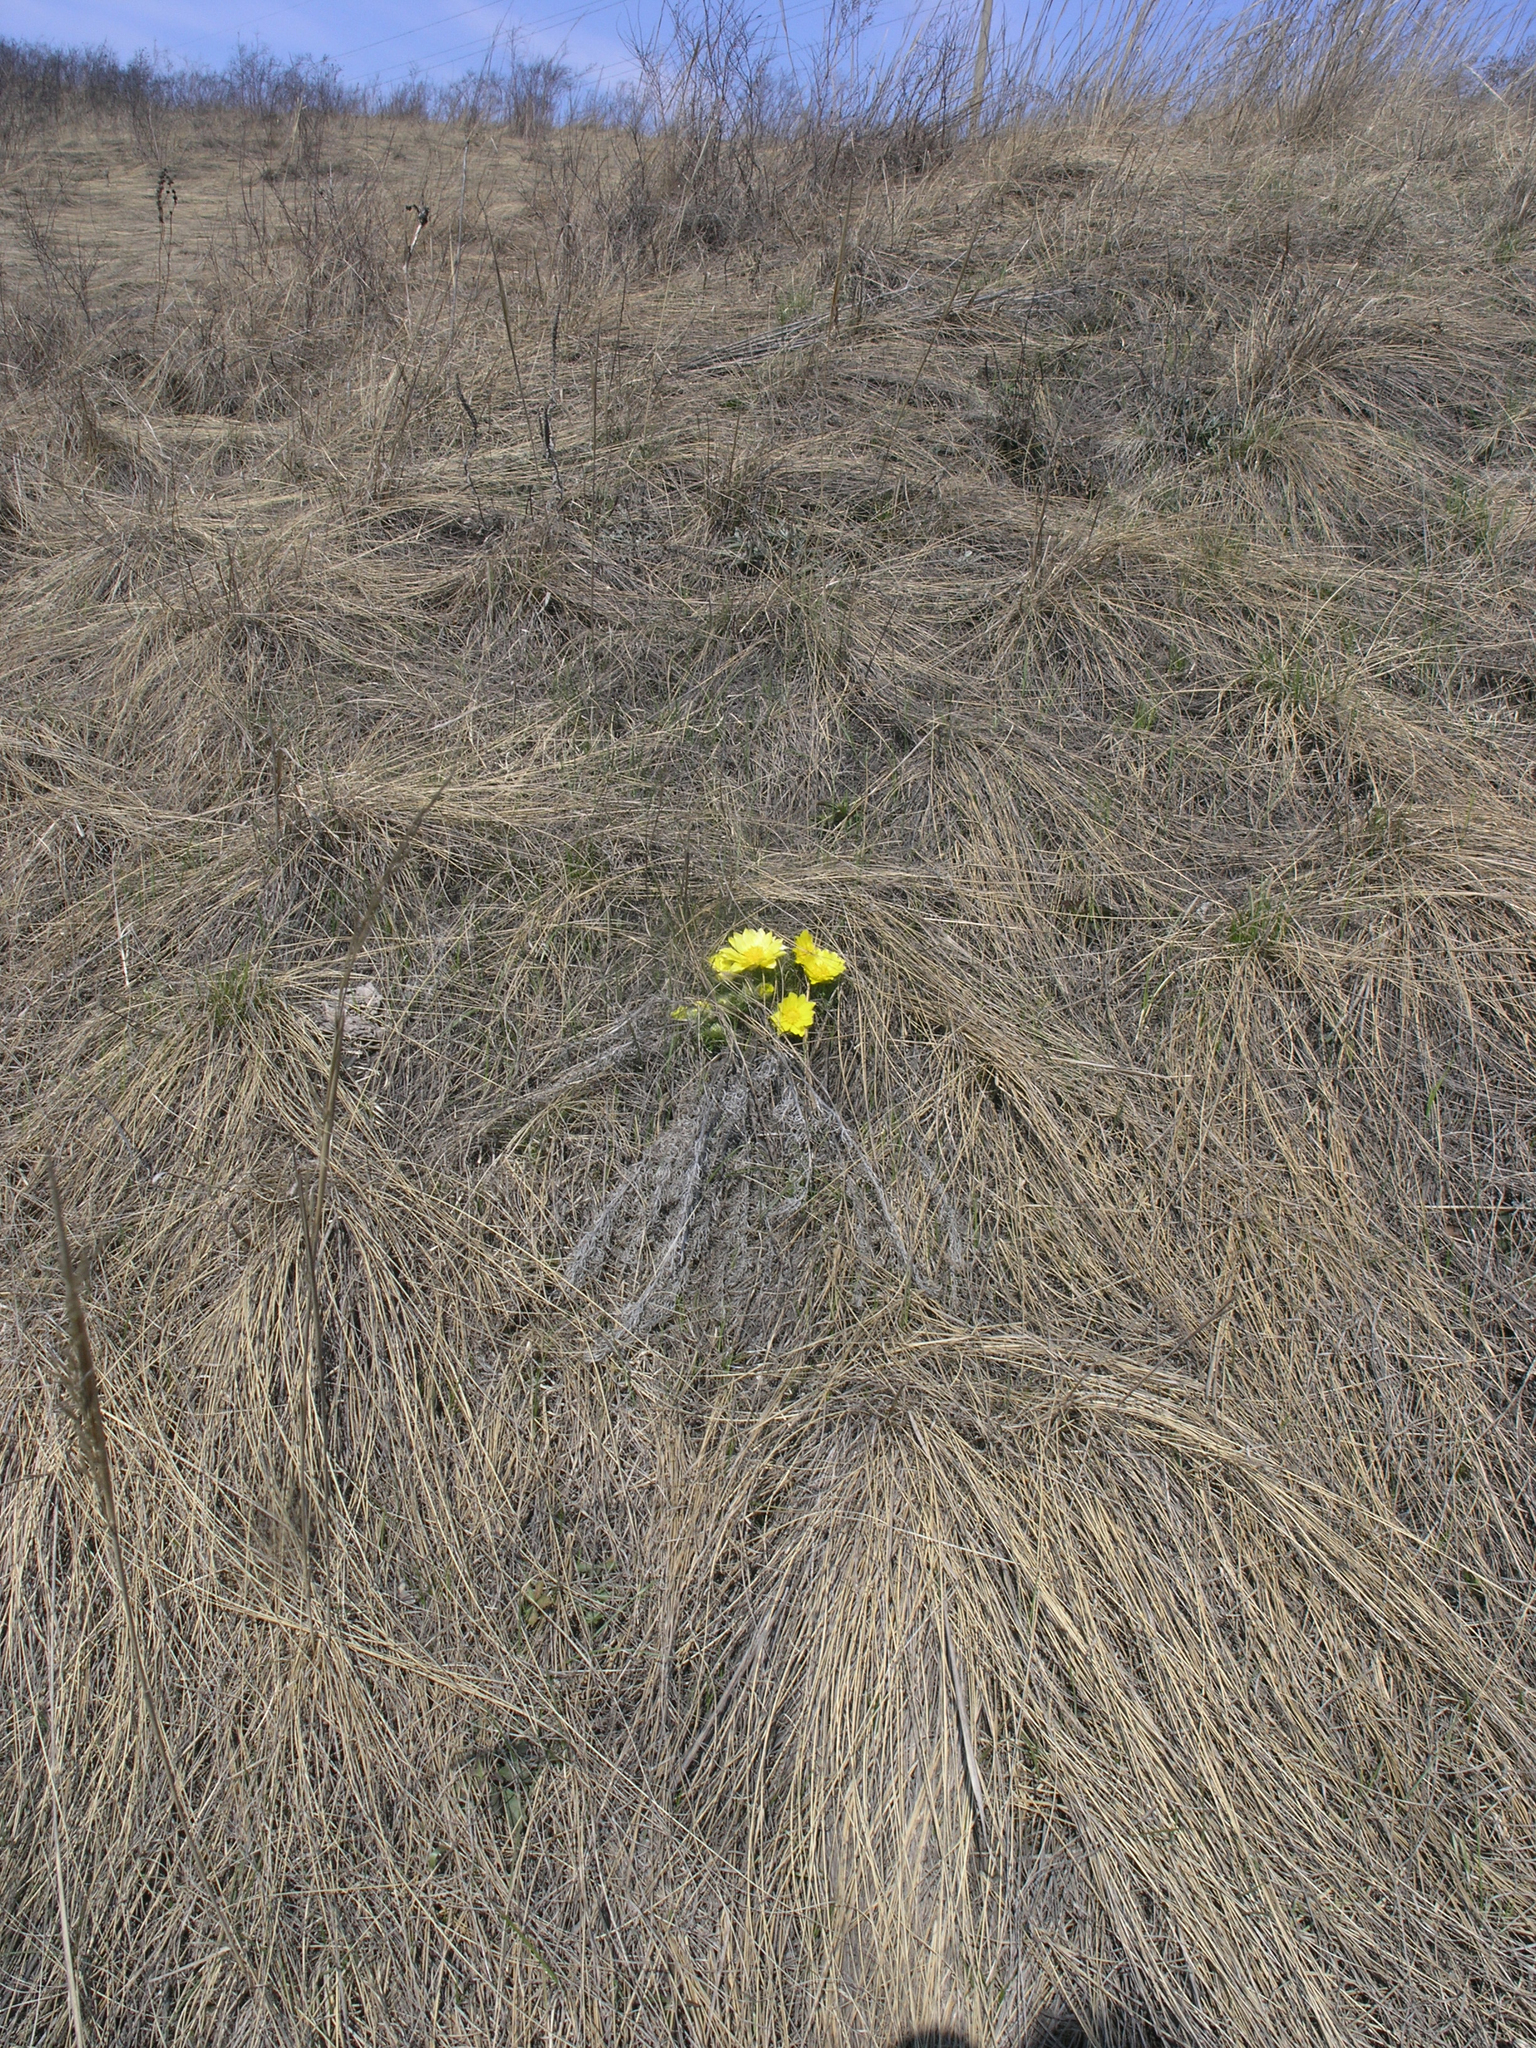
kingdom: Plantae
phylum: Tracheophyta
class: Magnoliopsida
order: Ranunculales
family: Ranunculaceae
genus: Adonis
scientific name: Adonis vernalis
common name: Yellow pheasants-eye
